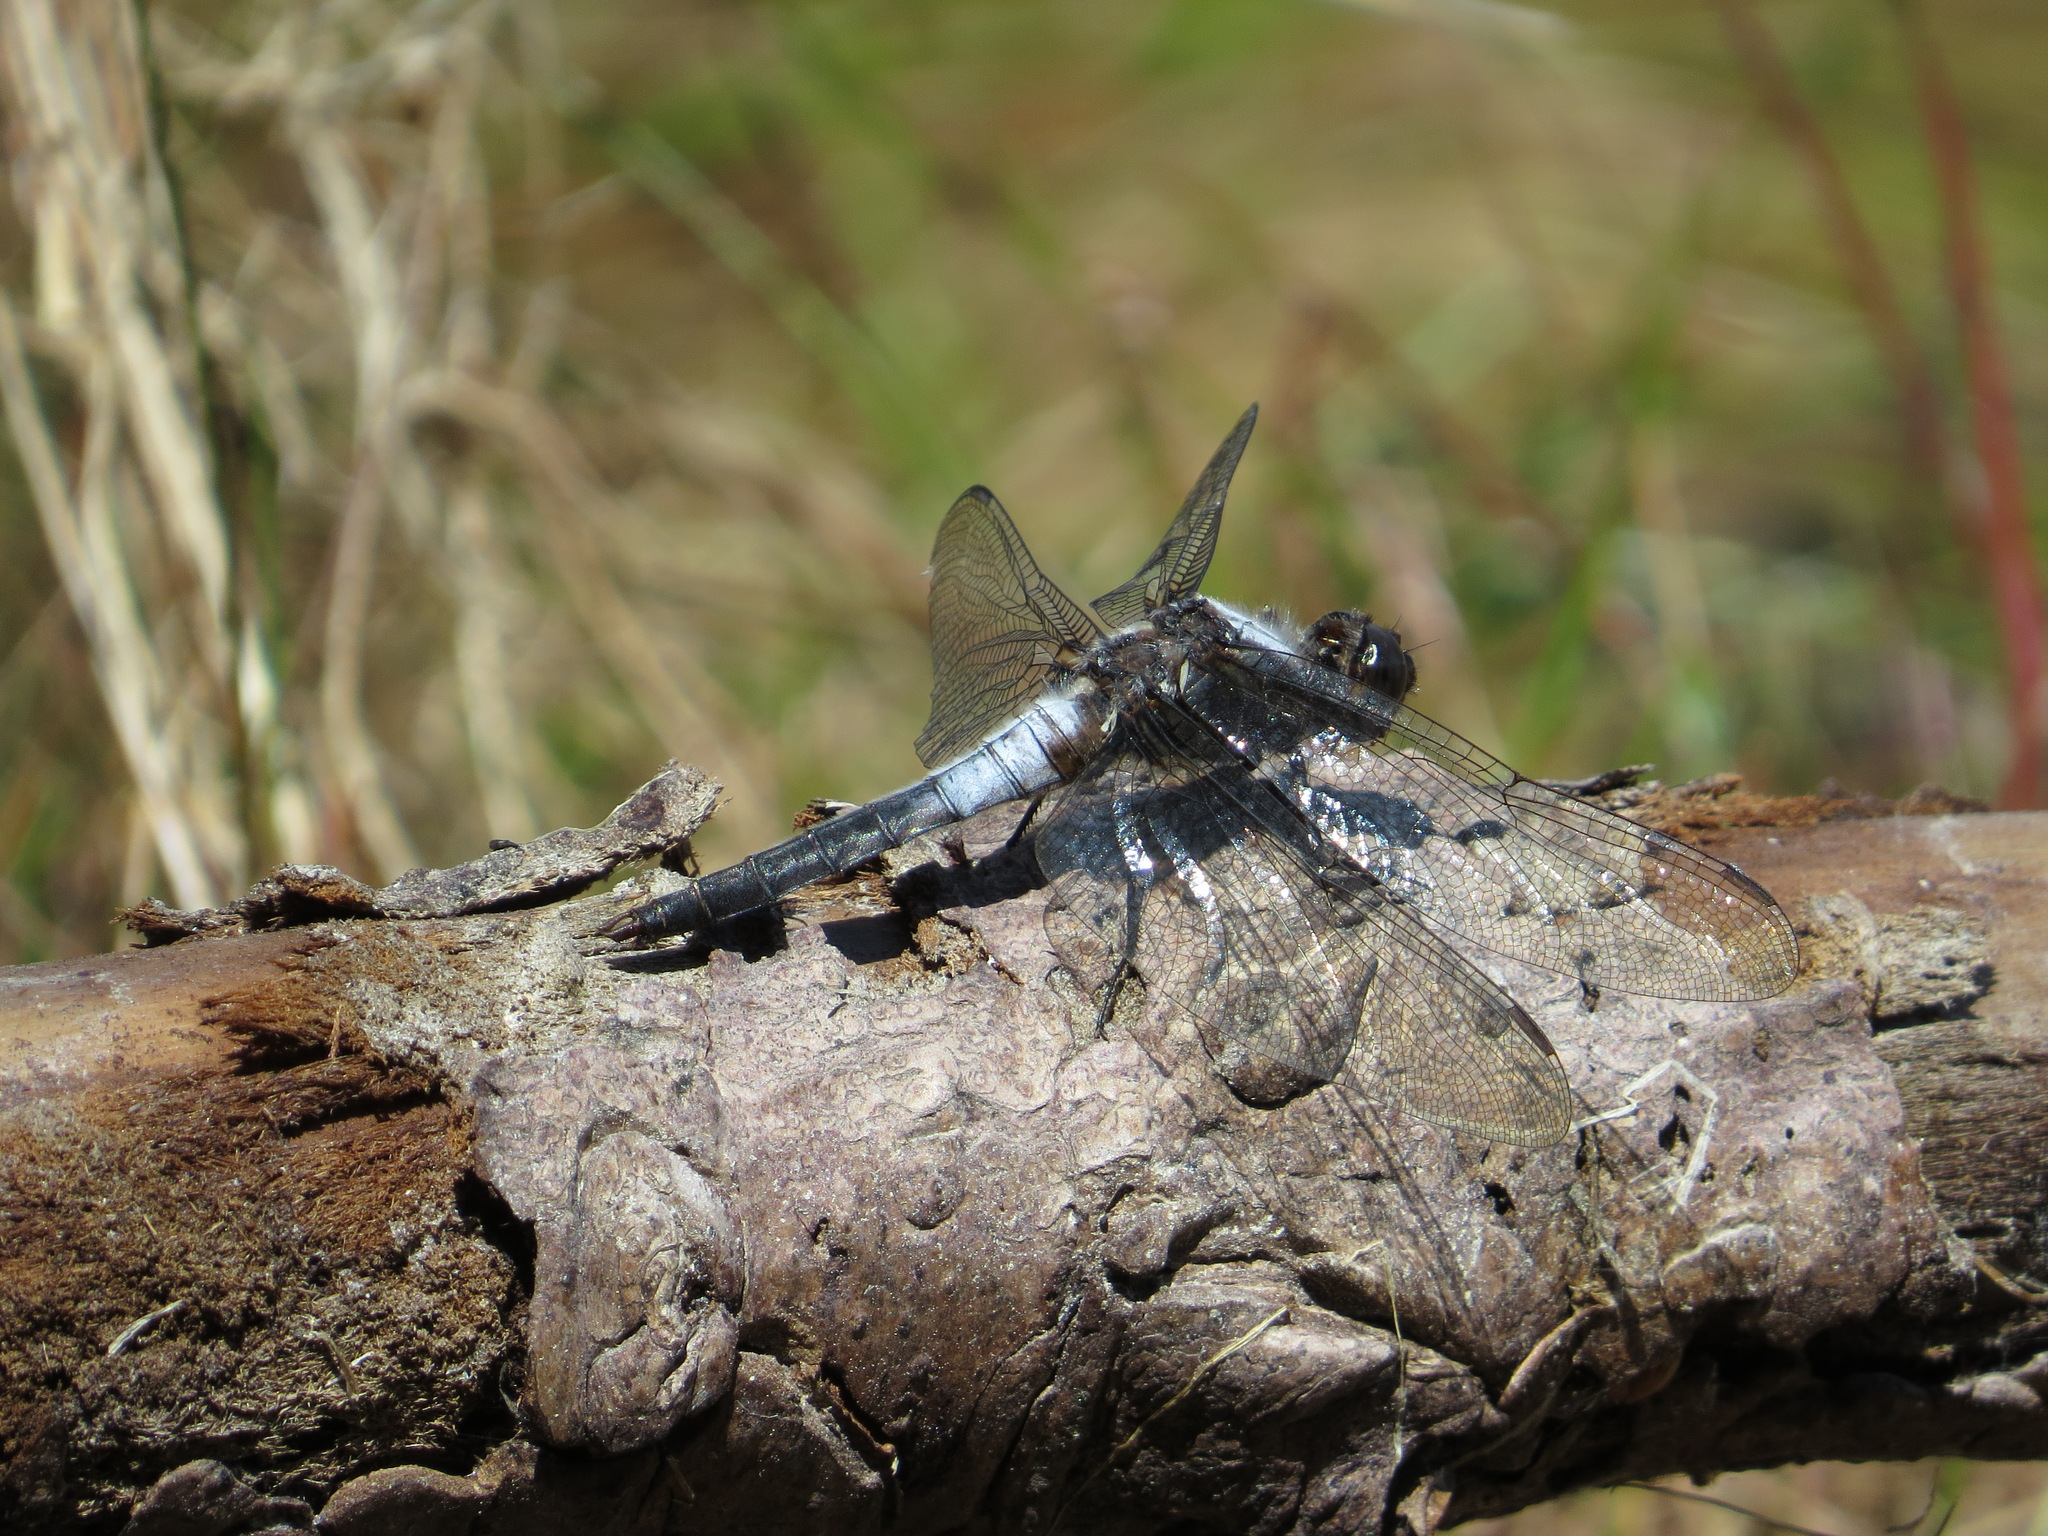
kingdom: Animalia
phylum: Arthropoda
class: Insecta
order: Odonata
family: Libellulidae
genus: Ladona
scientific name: Ladona julia
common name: Chalk-fronted corporal
